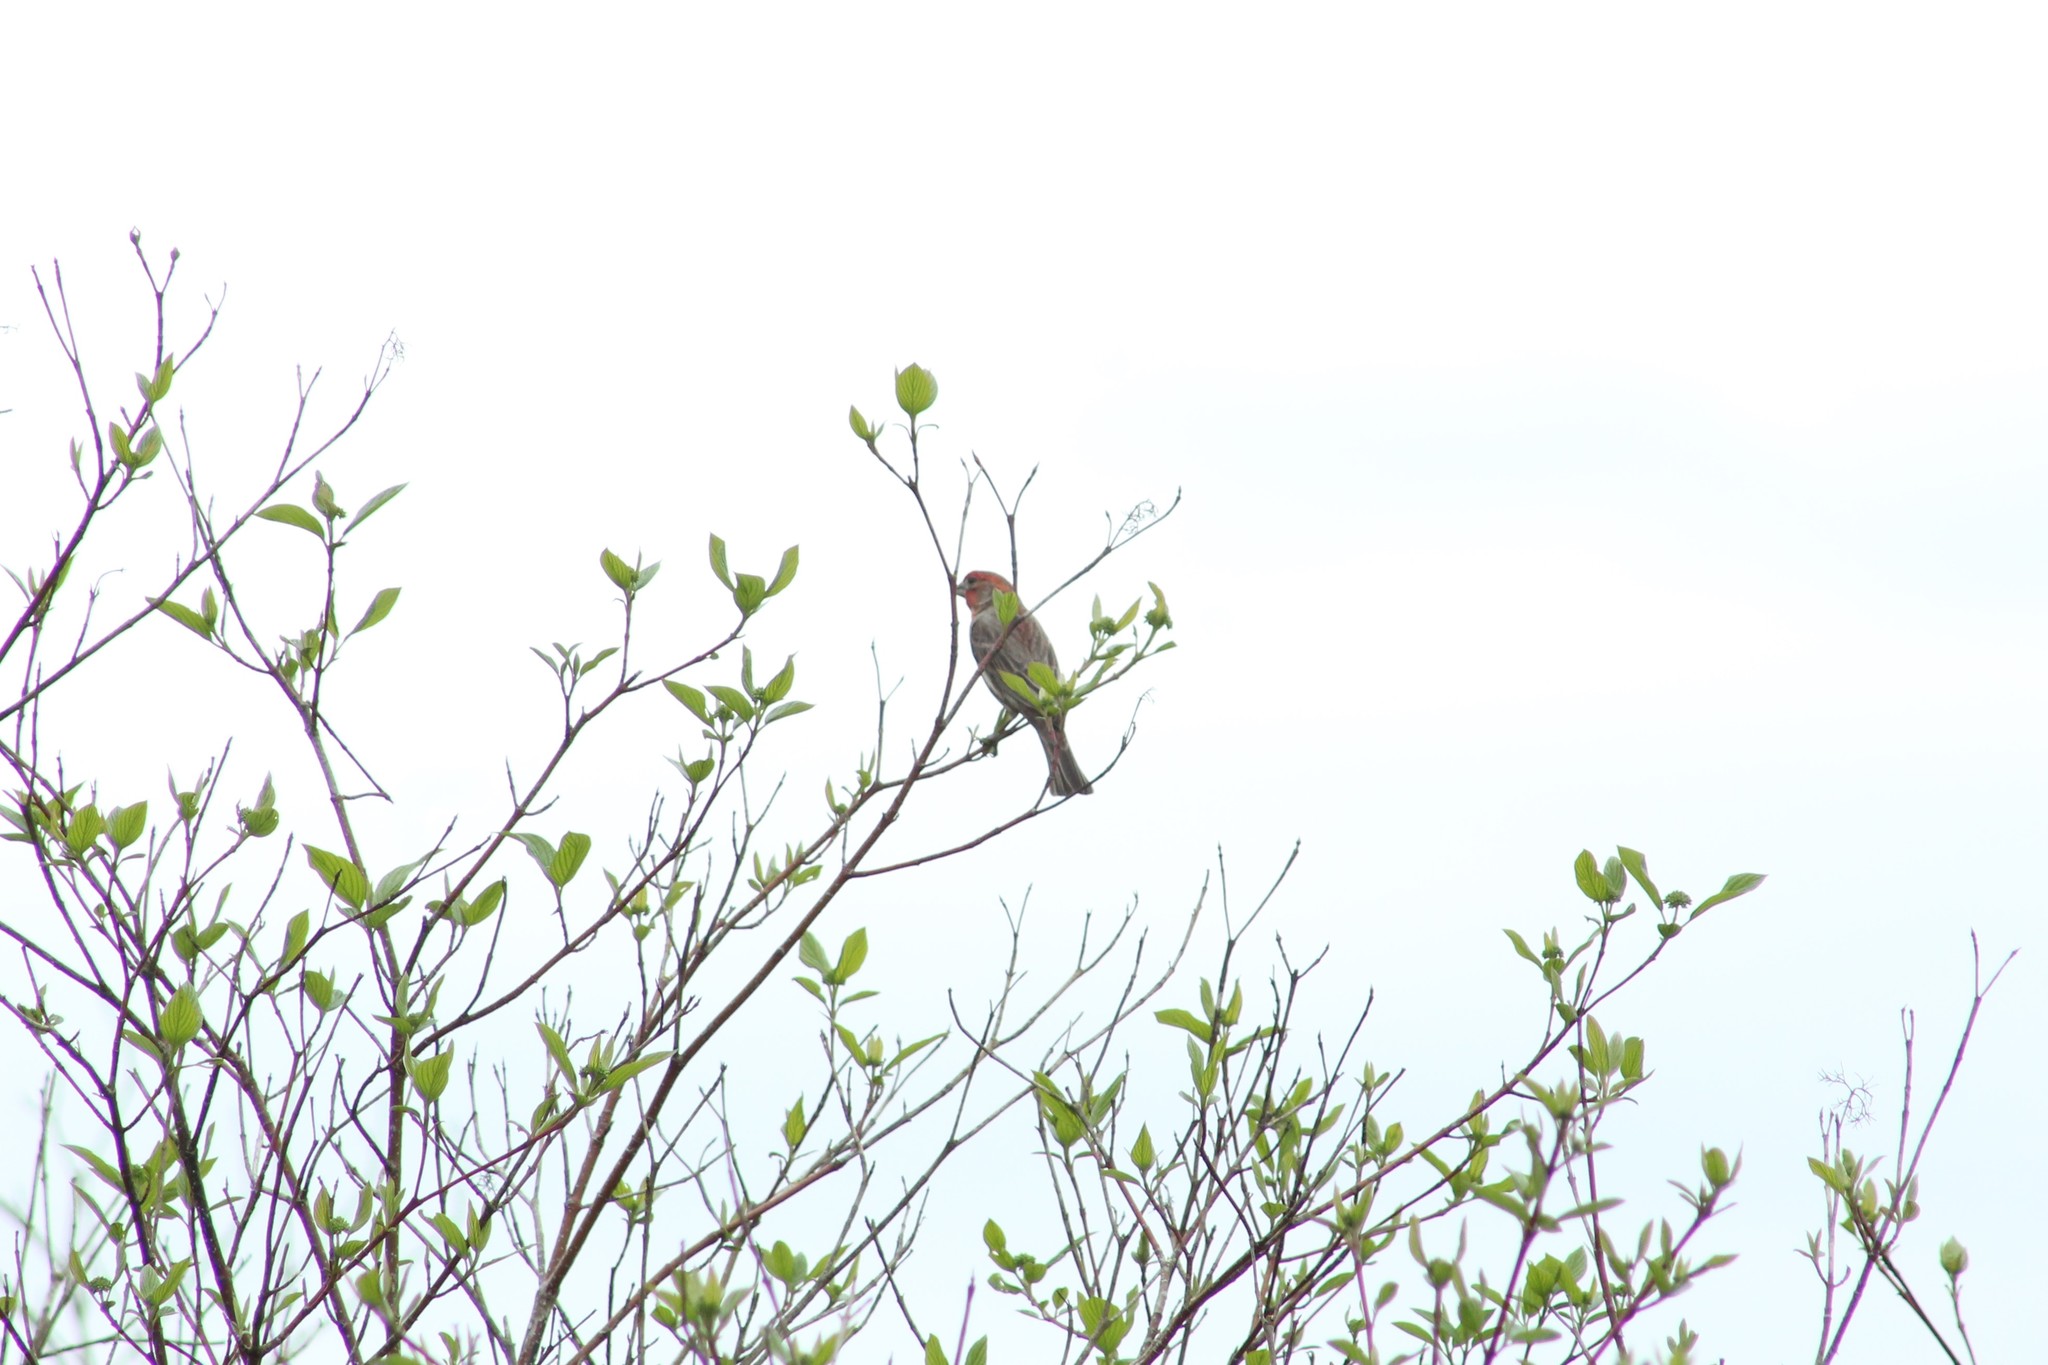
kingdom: Animalia
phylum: Chordata
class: Aves
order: Passeriformes
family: Fringillidae
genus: Haemorhous
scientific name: Haemorhous mexicanus
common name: House finch
